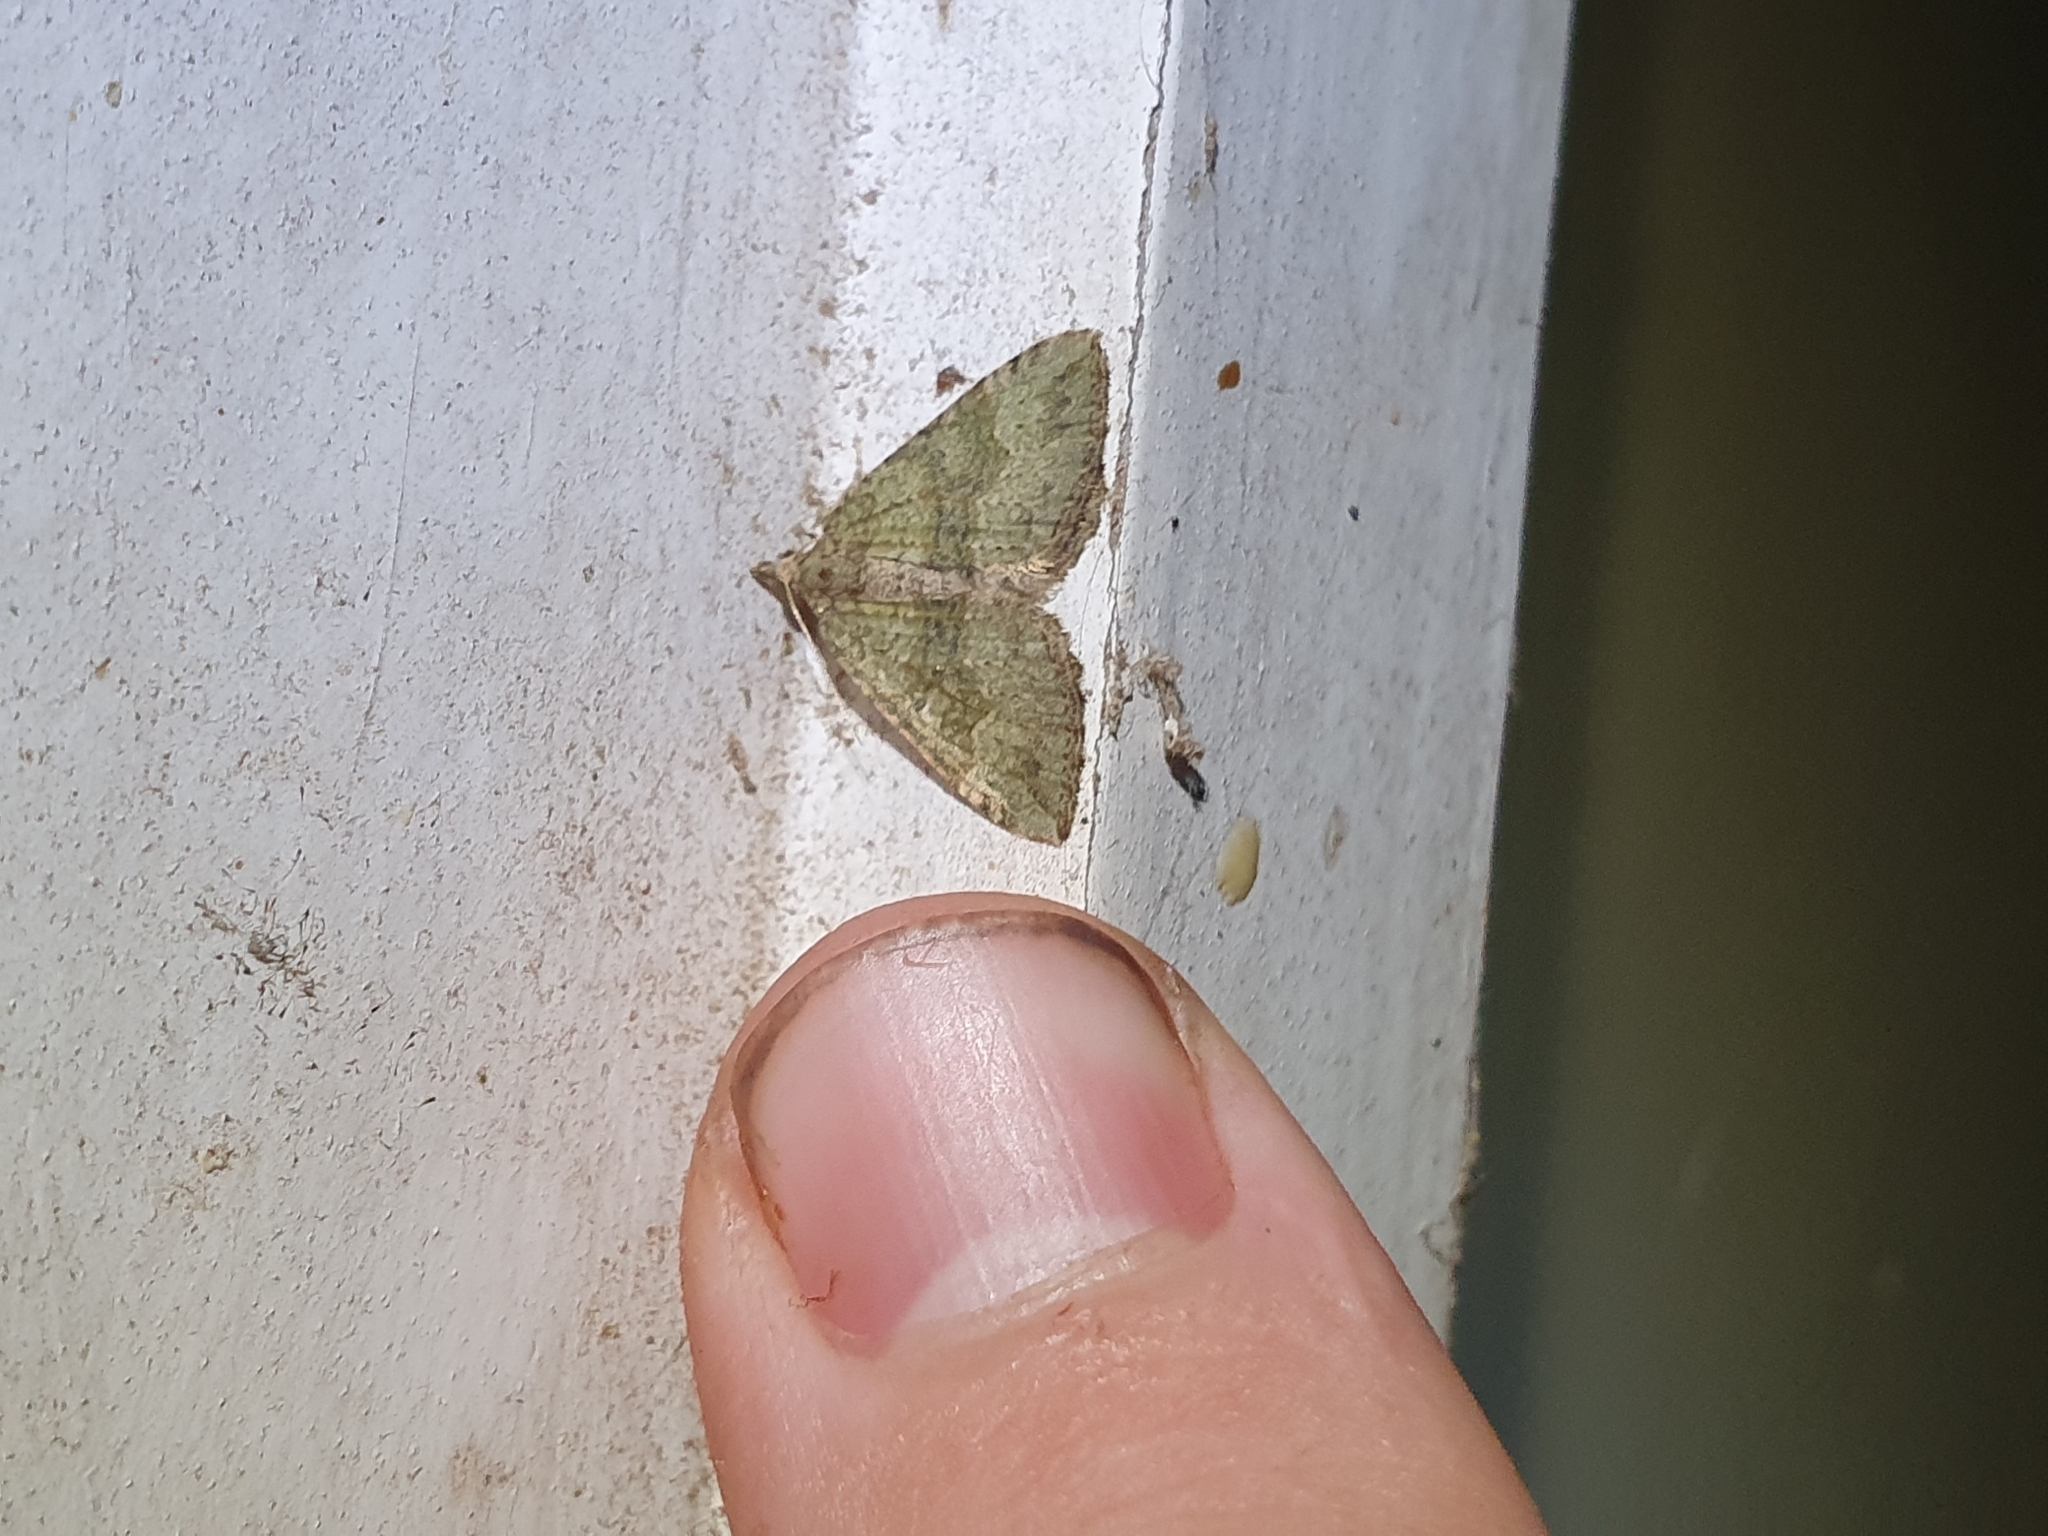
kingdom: Animalia
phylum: Arthropoda
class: Insecta
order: Lepidoptera
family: Geometridae
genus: Epyaxa
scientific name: Epyaxa rosearia
